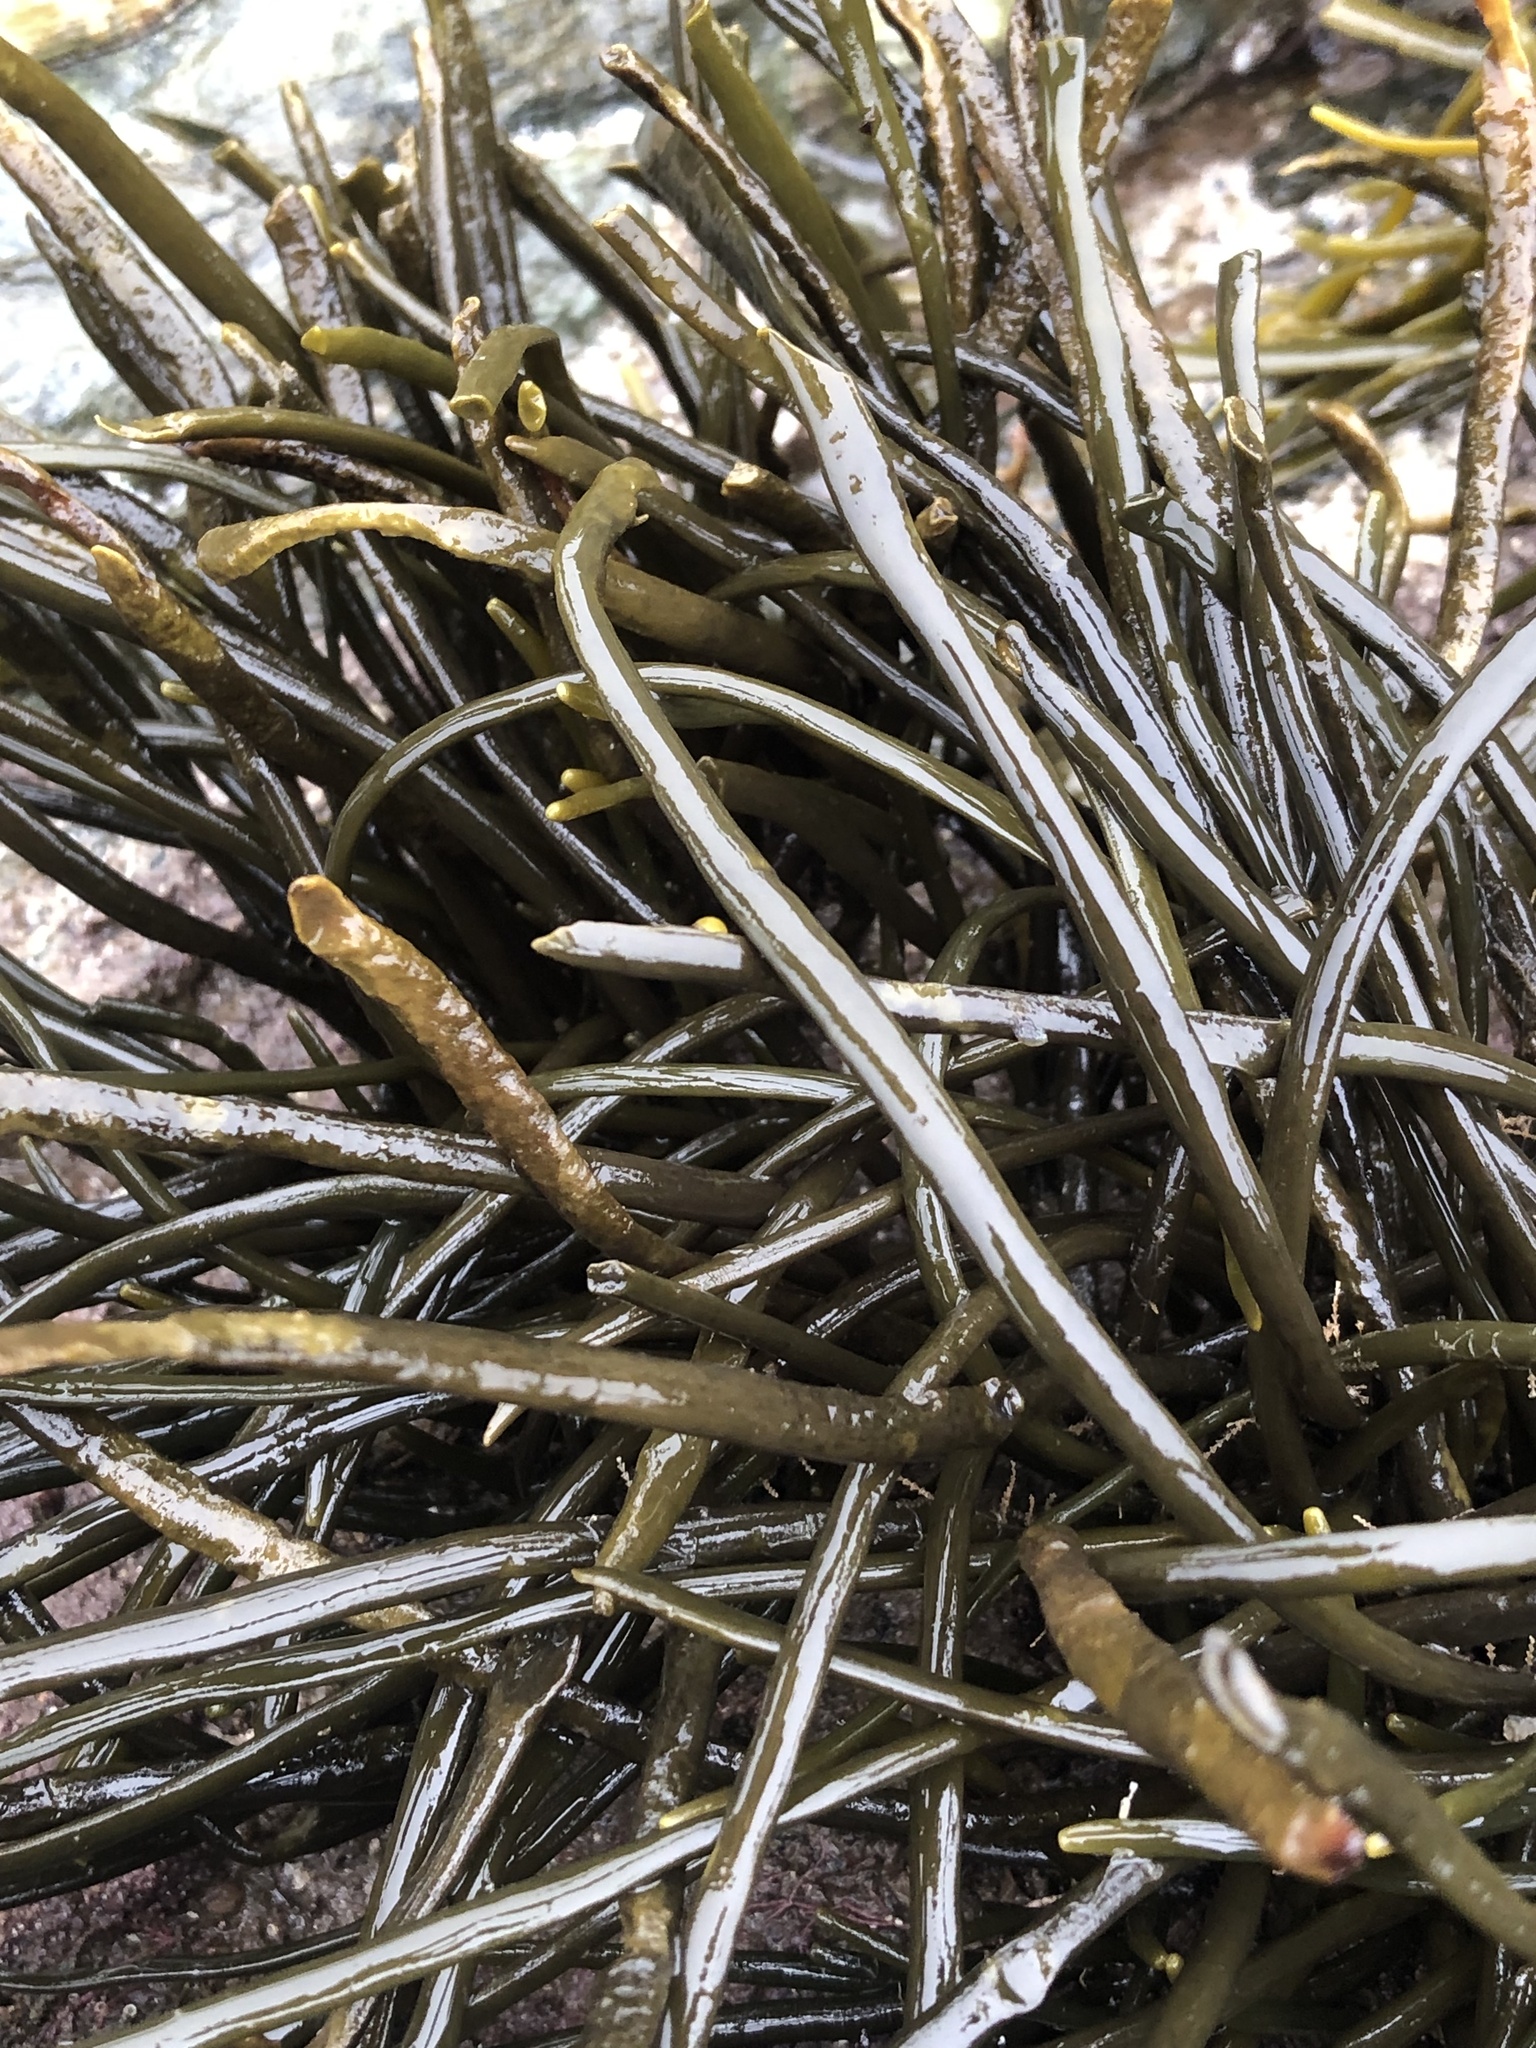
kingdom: Chromista
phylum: Ochrophyta
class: Phaeophyceae
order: Fucales
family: Fucaceae
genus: Ascophyllum
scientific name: Ascophyllum nodosum
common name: Knotted wrack
